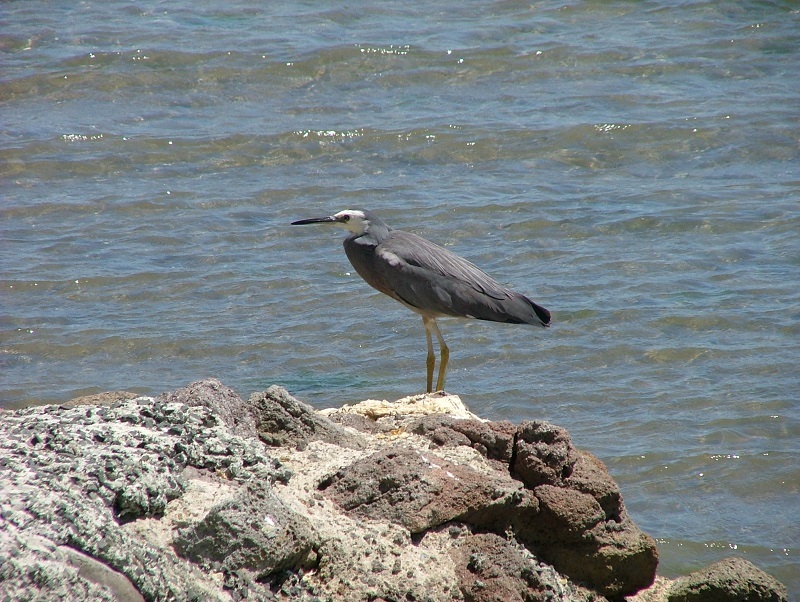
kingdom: Animalia
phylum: Chordata
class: Aves
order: Pelecaniformes
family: Ardeidae
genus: Egretta
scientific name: Egretta novaehollandiae
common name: White-faced heron
